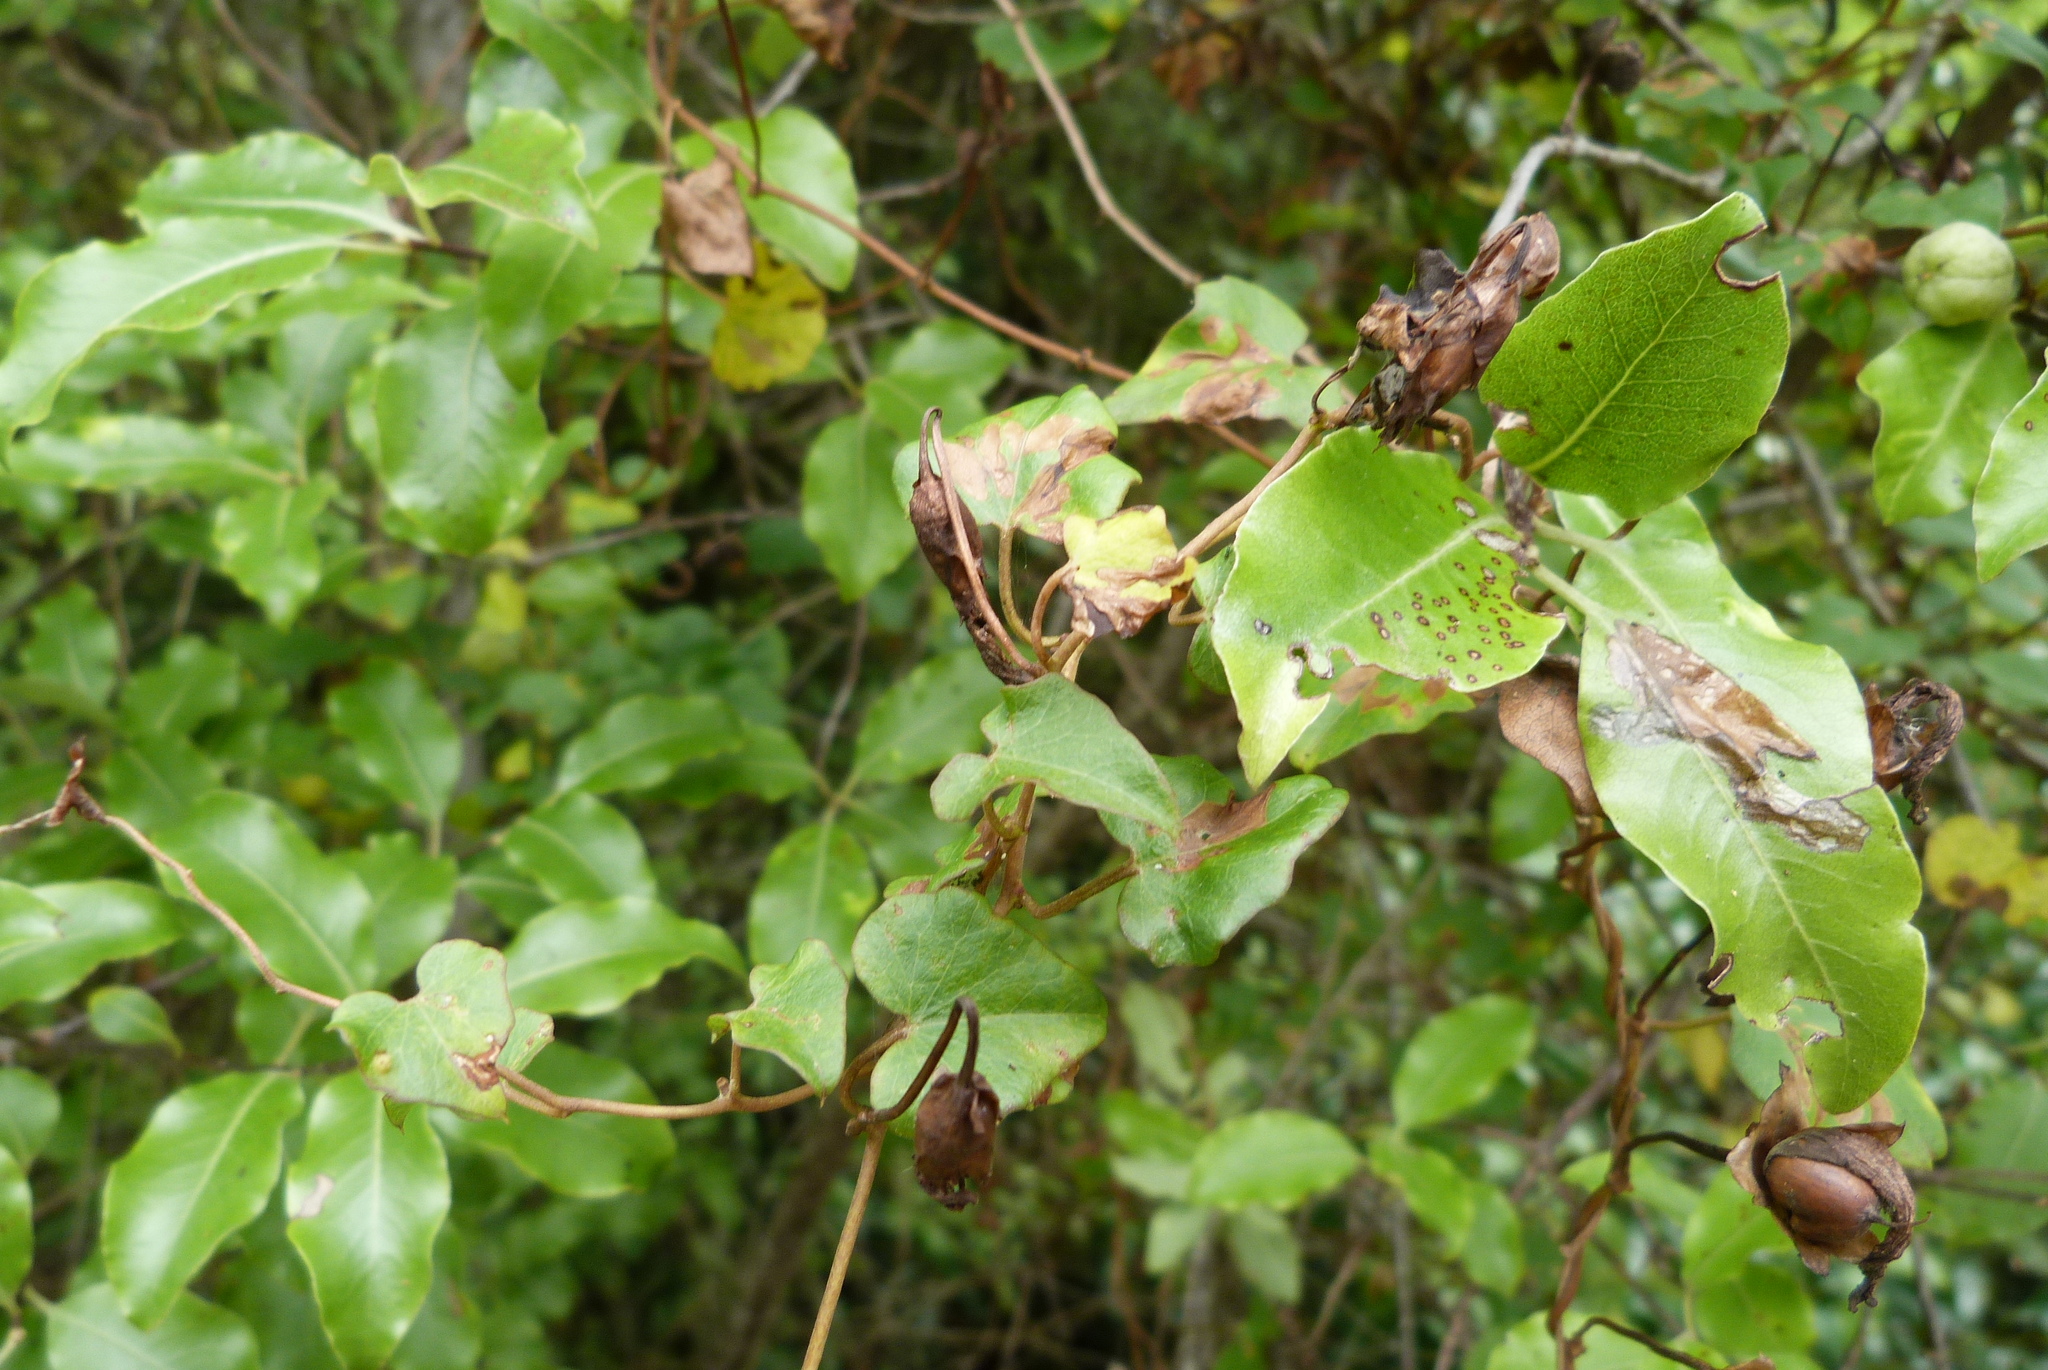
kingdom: Plantae
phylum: Tracheophyta
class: Magnoliopsida
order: Solanales
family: Convolvulaceae
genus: Calystegia
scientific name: Calystegia tuguriorum
